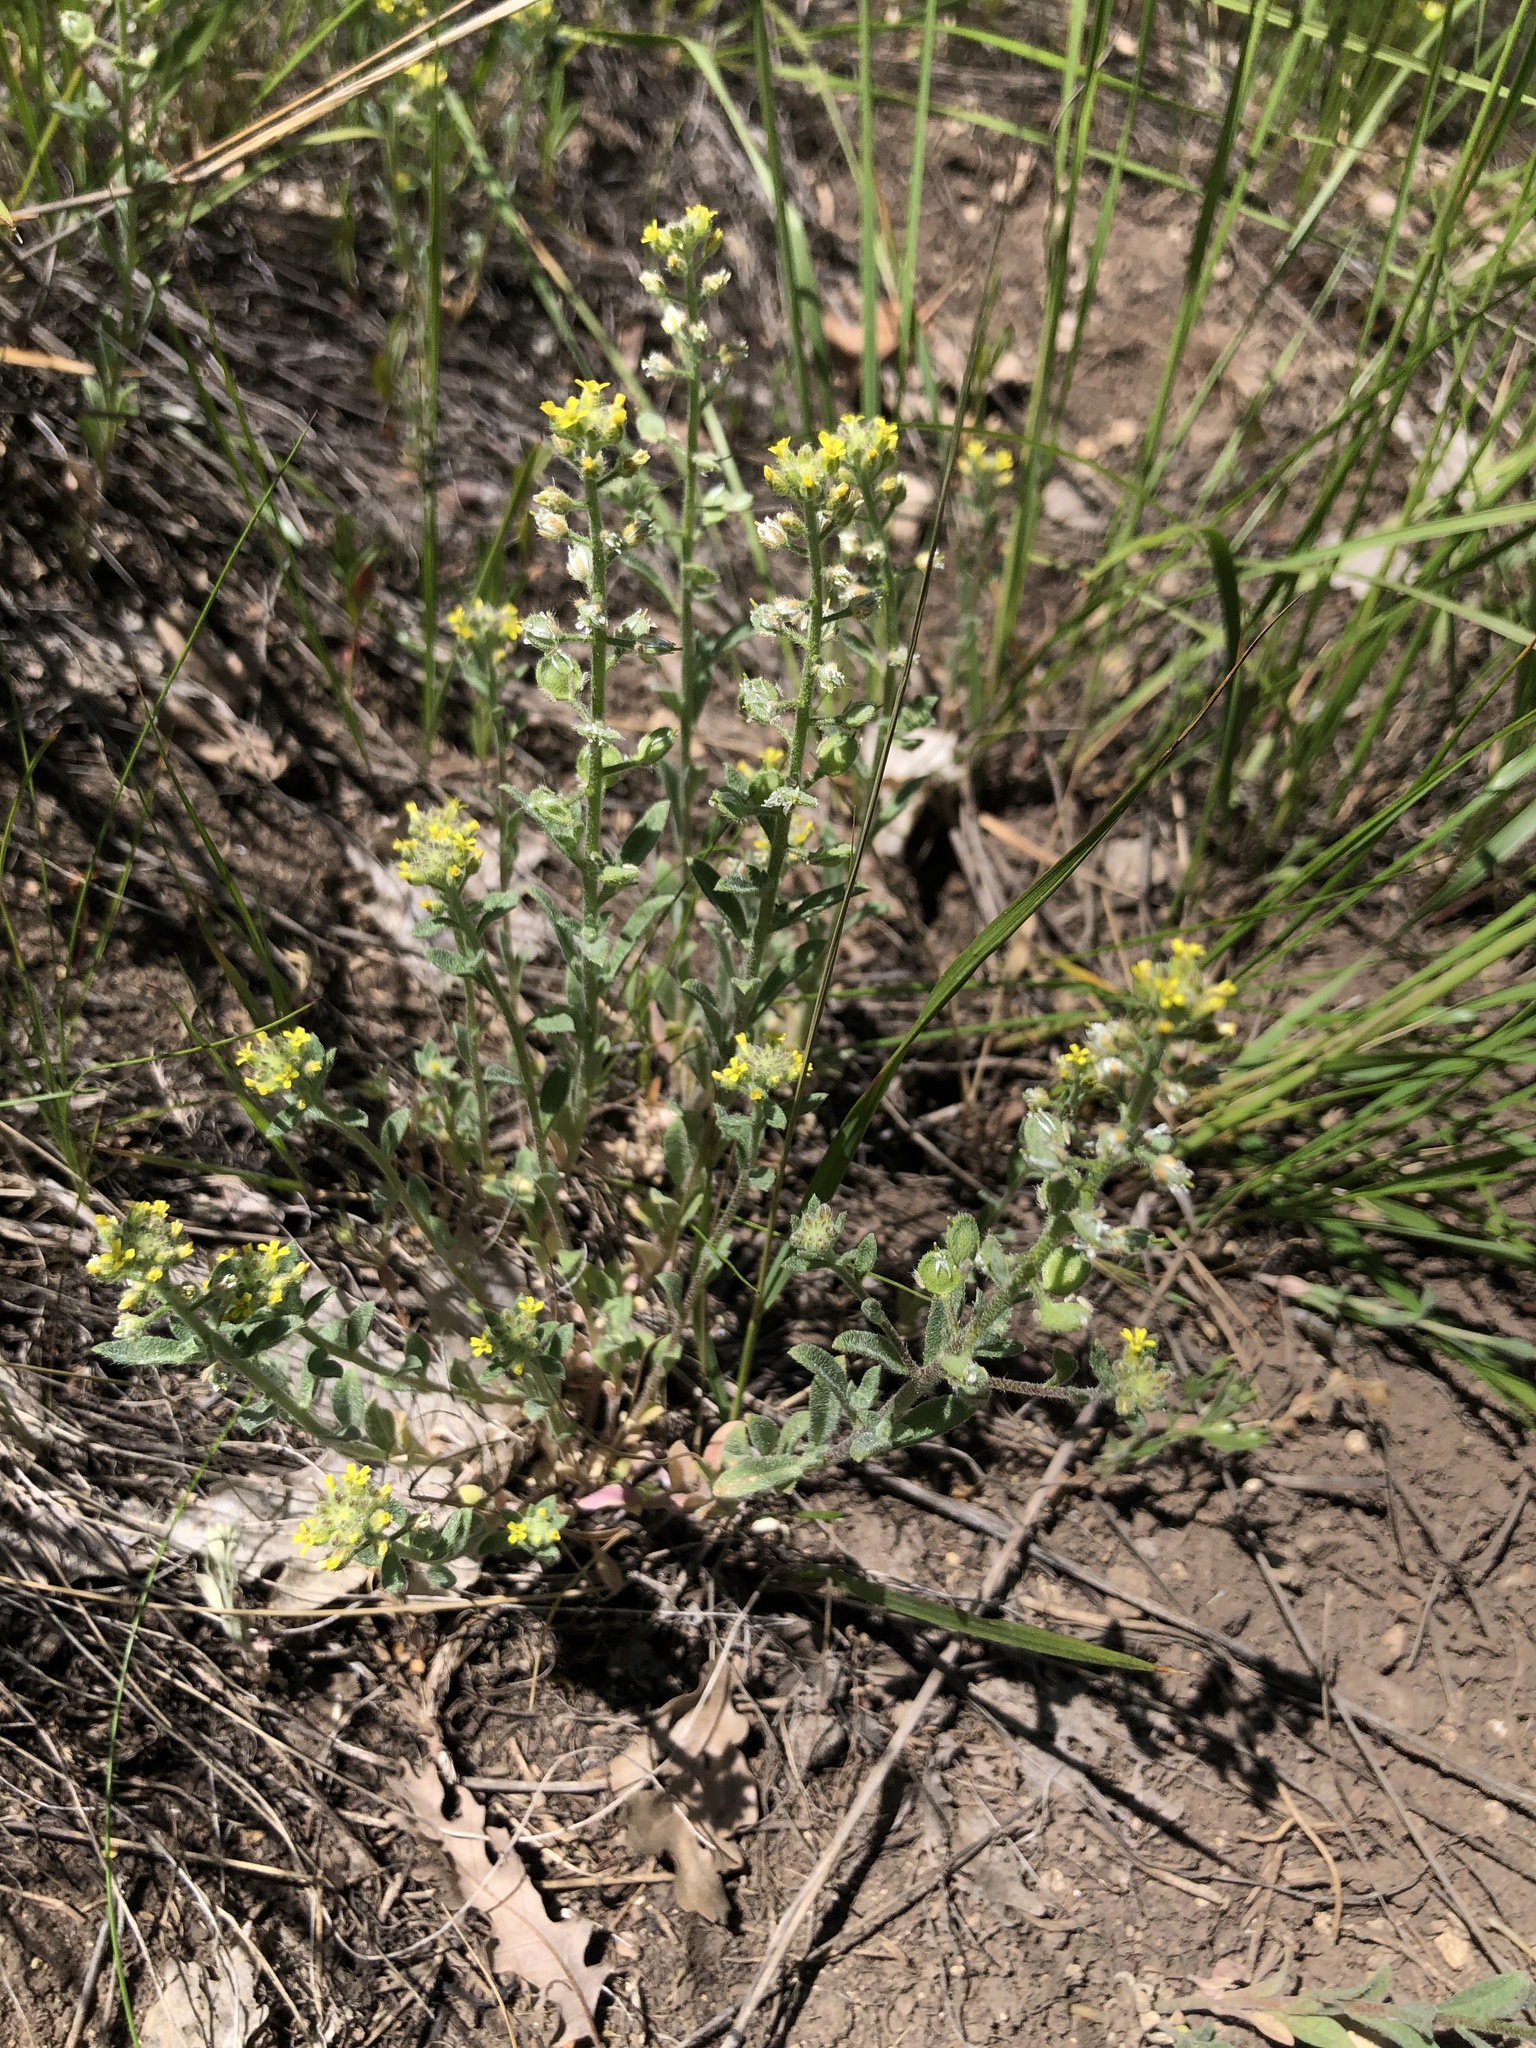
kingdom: Plantae
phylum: Tracheophyta
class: Magnoliopsida
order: Brassicales
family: Brassicaceae
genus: Alyssum
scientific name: Alyssum simplex
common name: Alyssum
